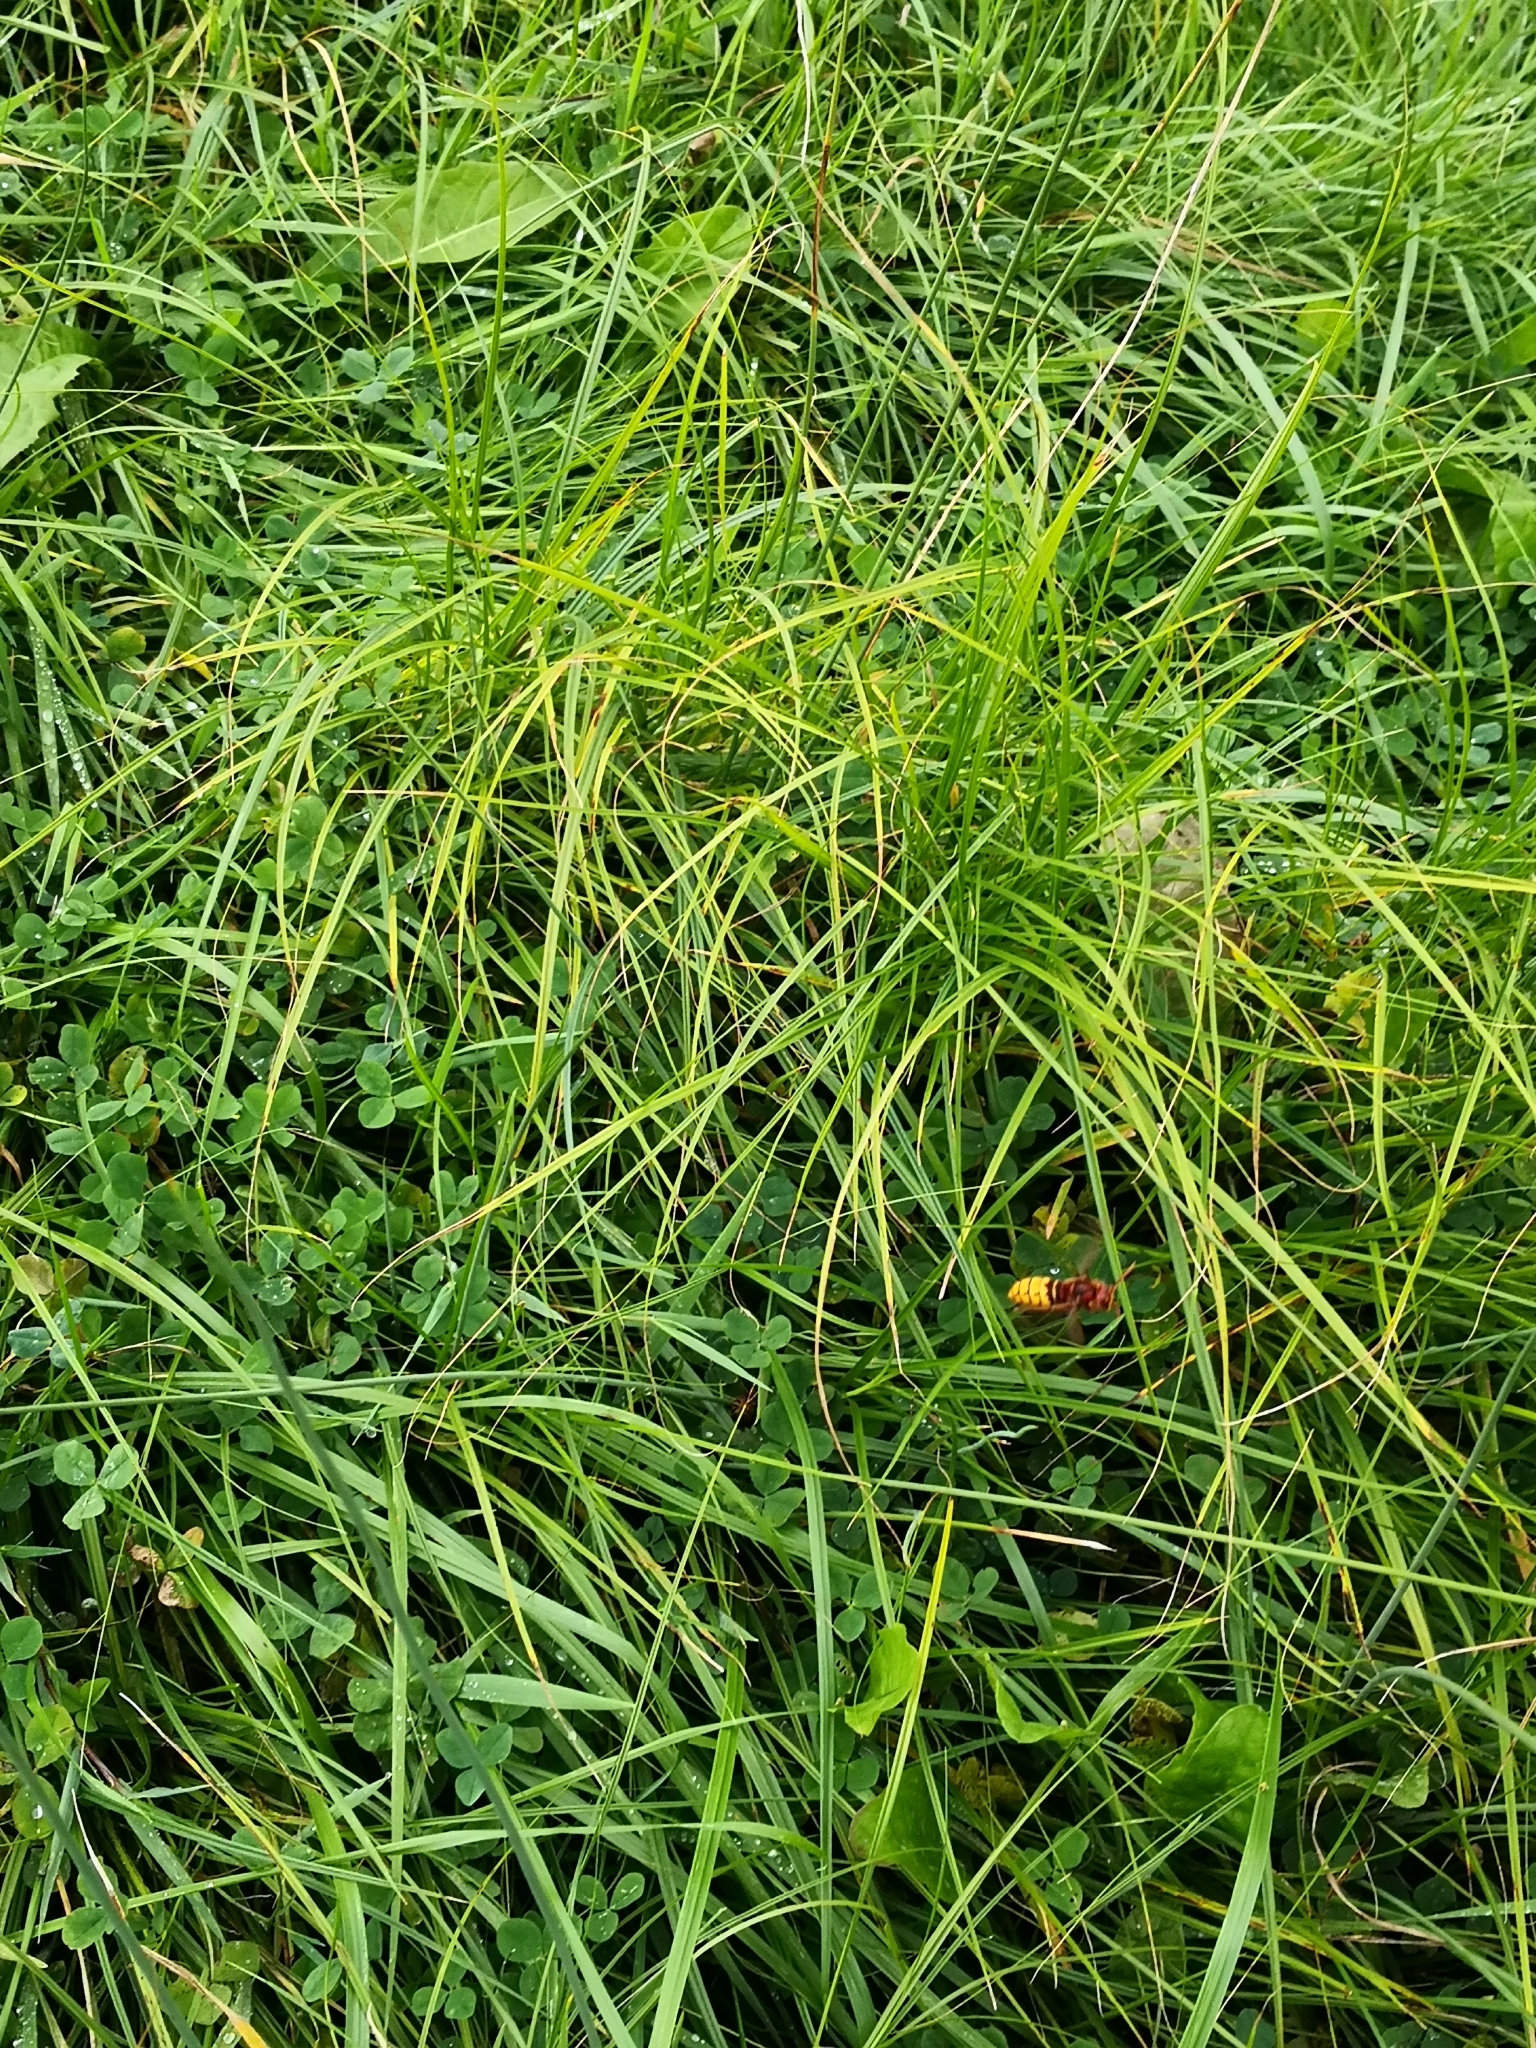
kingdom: Animalia
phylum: Arthropoda
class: Insecta
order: Hymenoptera
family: Vespidae
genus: Vespa
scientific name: Vespa crabro
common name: Hornet
